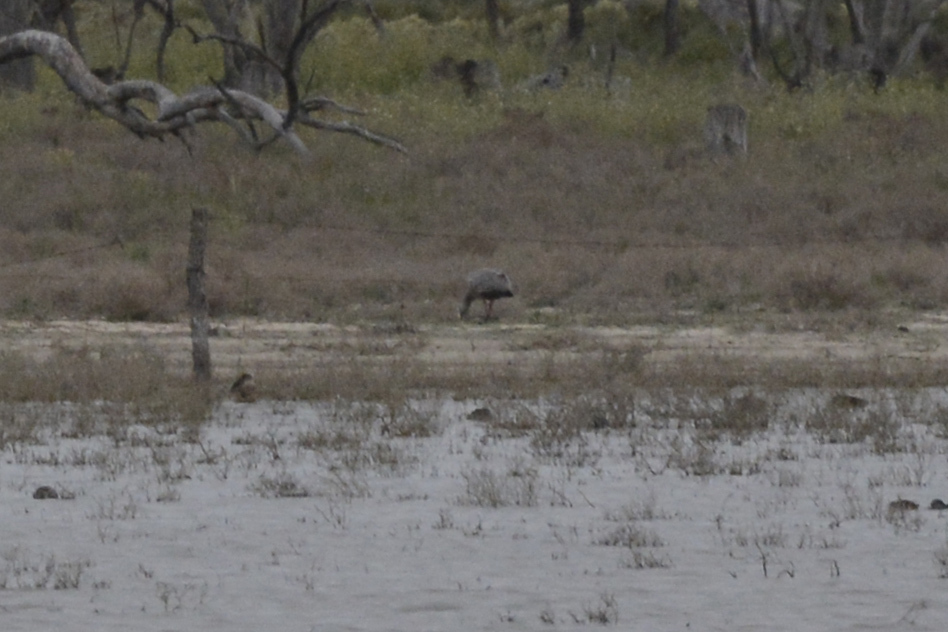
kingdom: Animalia
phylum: Chordata
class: Aves
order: Anseriformes
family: Anatidae
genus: Cereopsis
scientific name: Cereopsis novaehollandiae
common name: Cape barren goose
